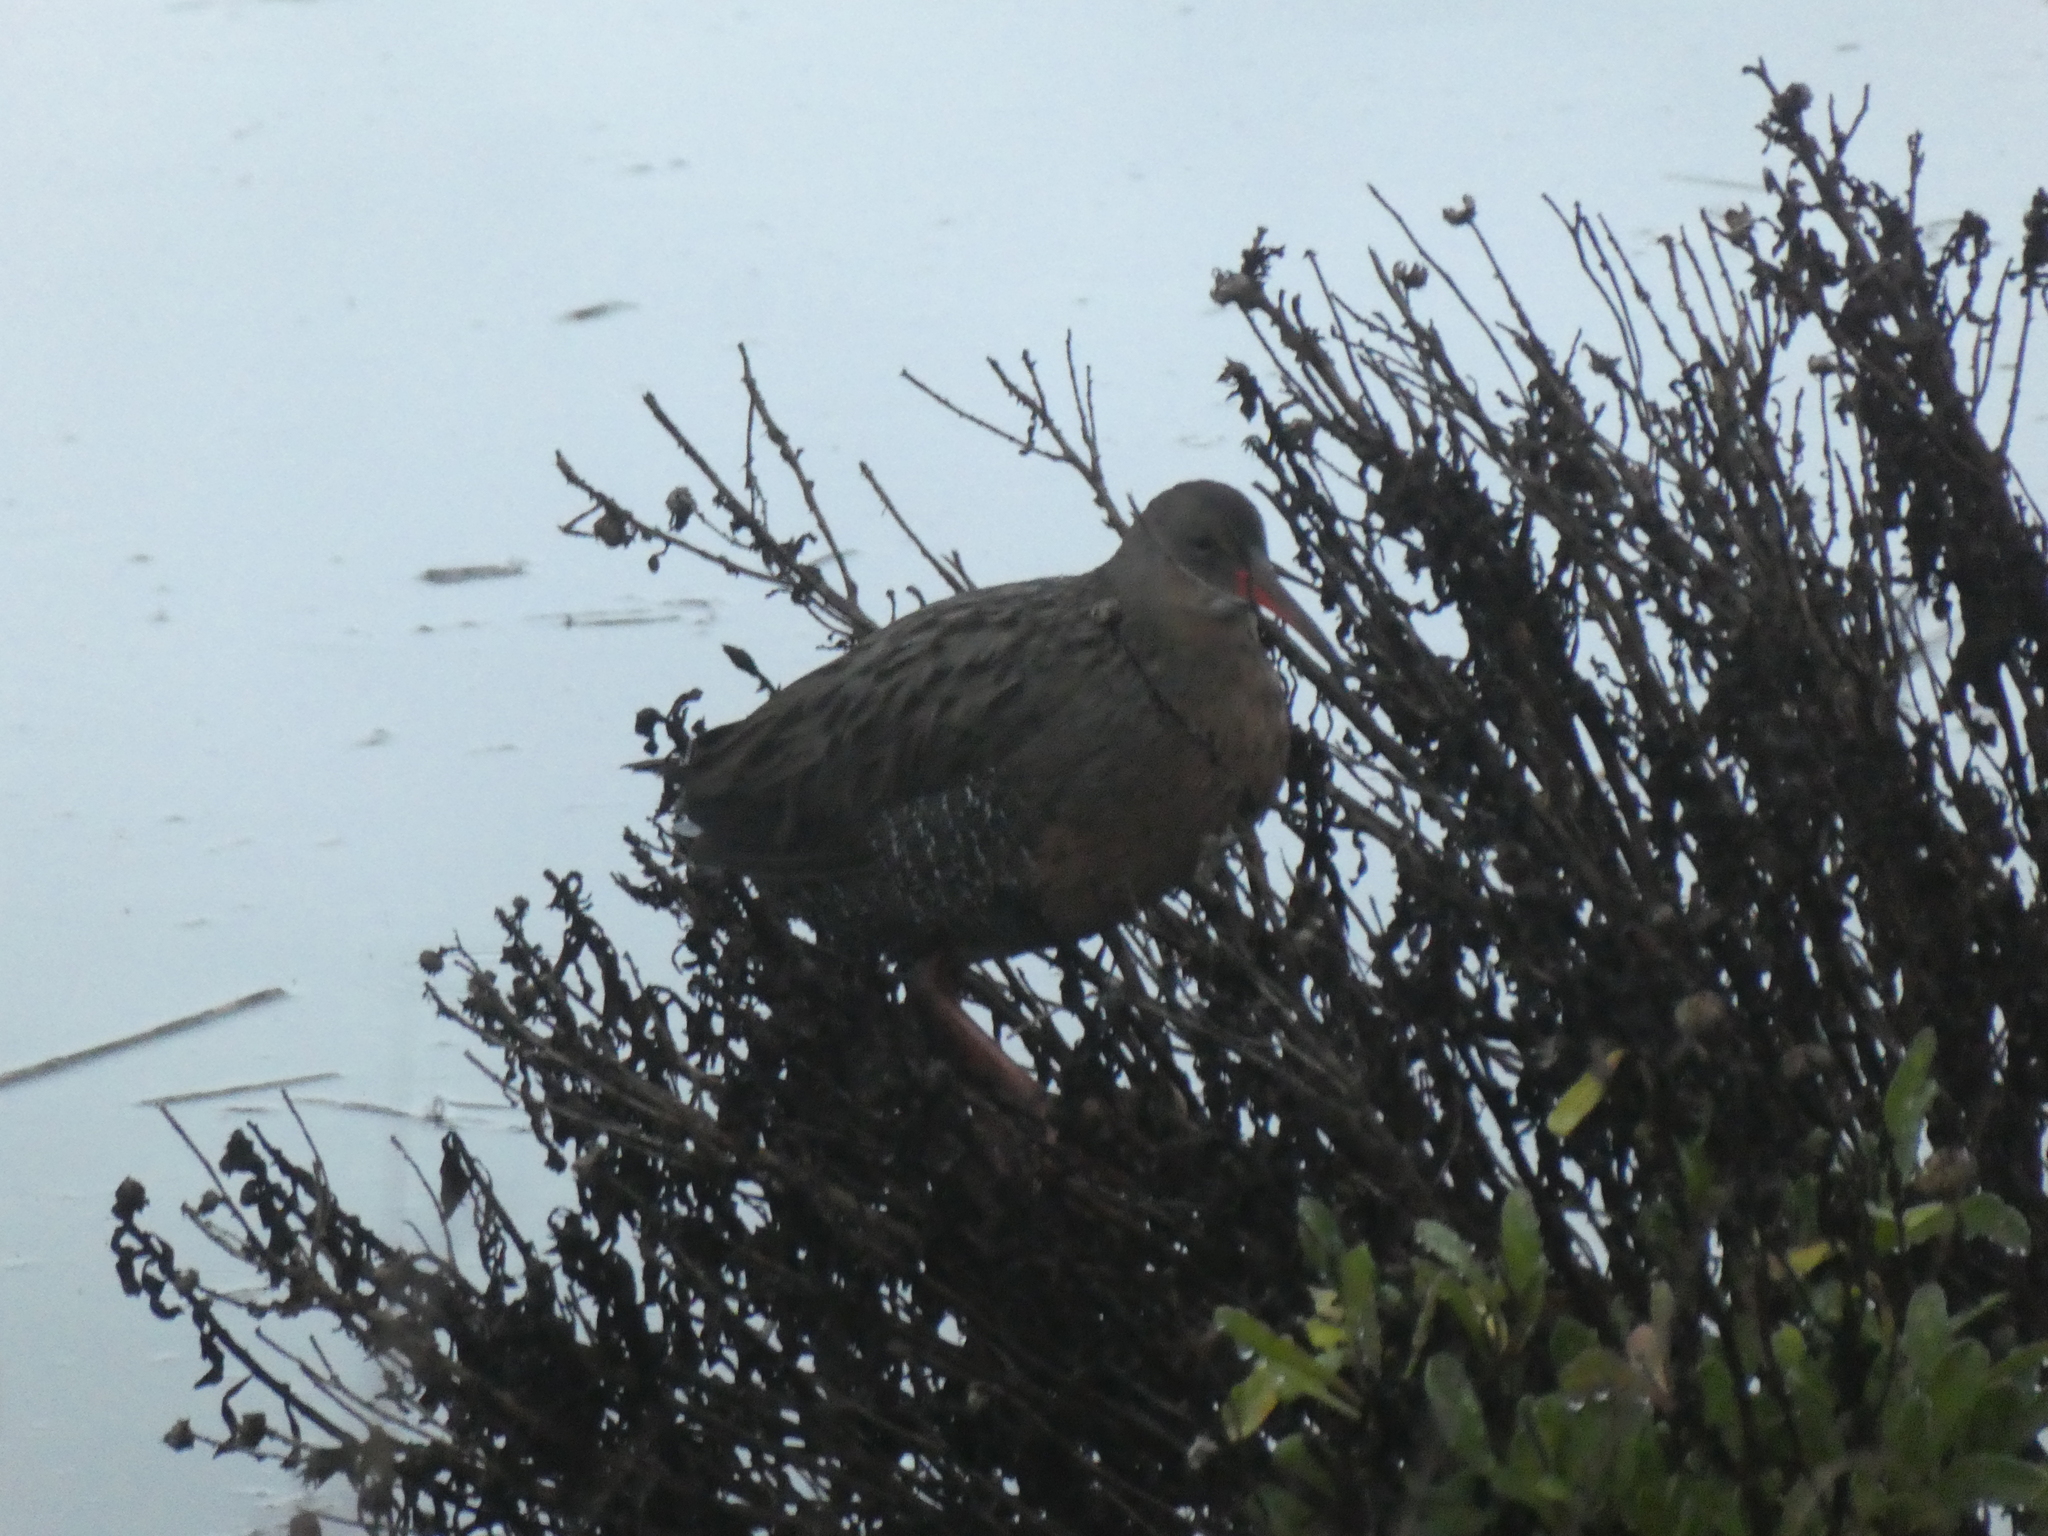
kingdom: Animalia
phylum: Chordata
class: Aves
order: Gruiformes
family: Rallidae
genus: Rallus
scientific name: Rallus obsoletus
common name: Ridgway's rail
